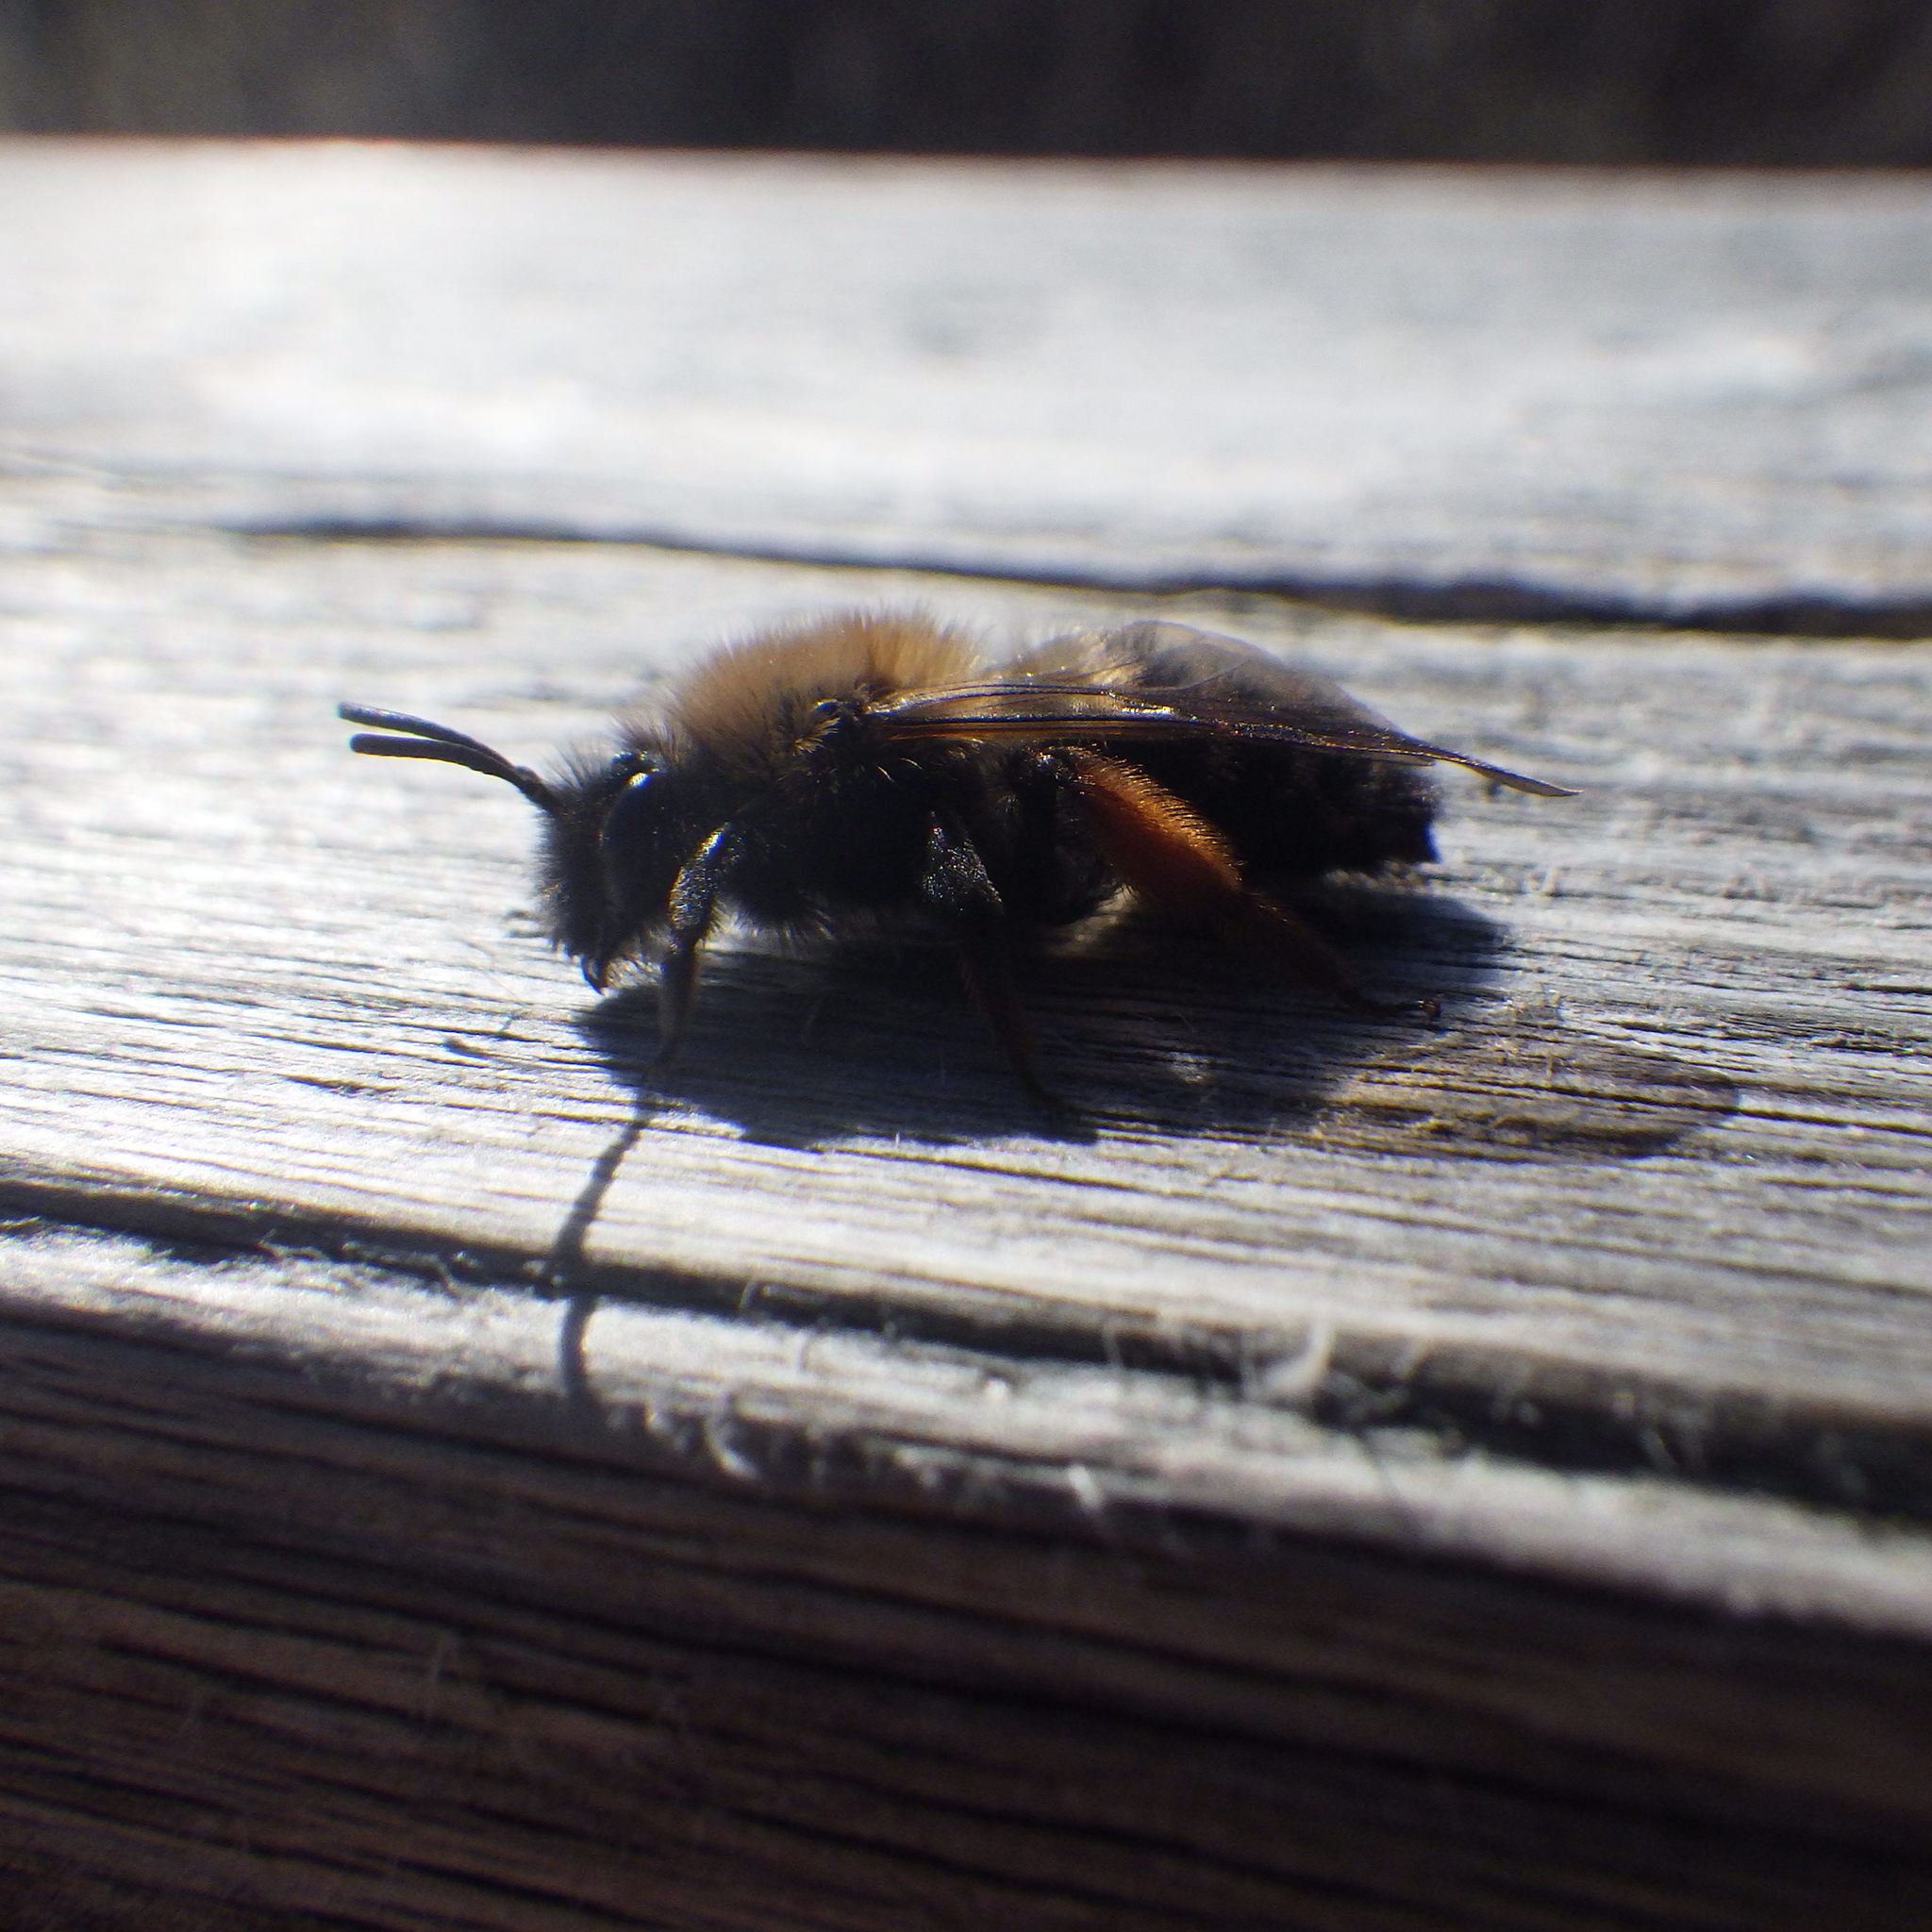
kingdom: Animalia
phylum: Arthropoda
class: Insecta
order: Hymenoptera
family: Andrenidae
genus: Andrena
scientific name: Andrena clarkella
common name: Clarke's mining bee
